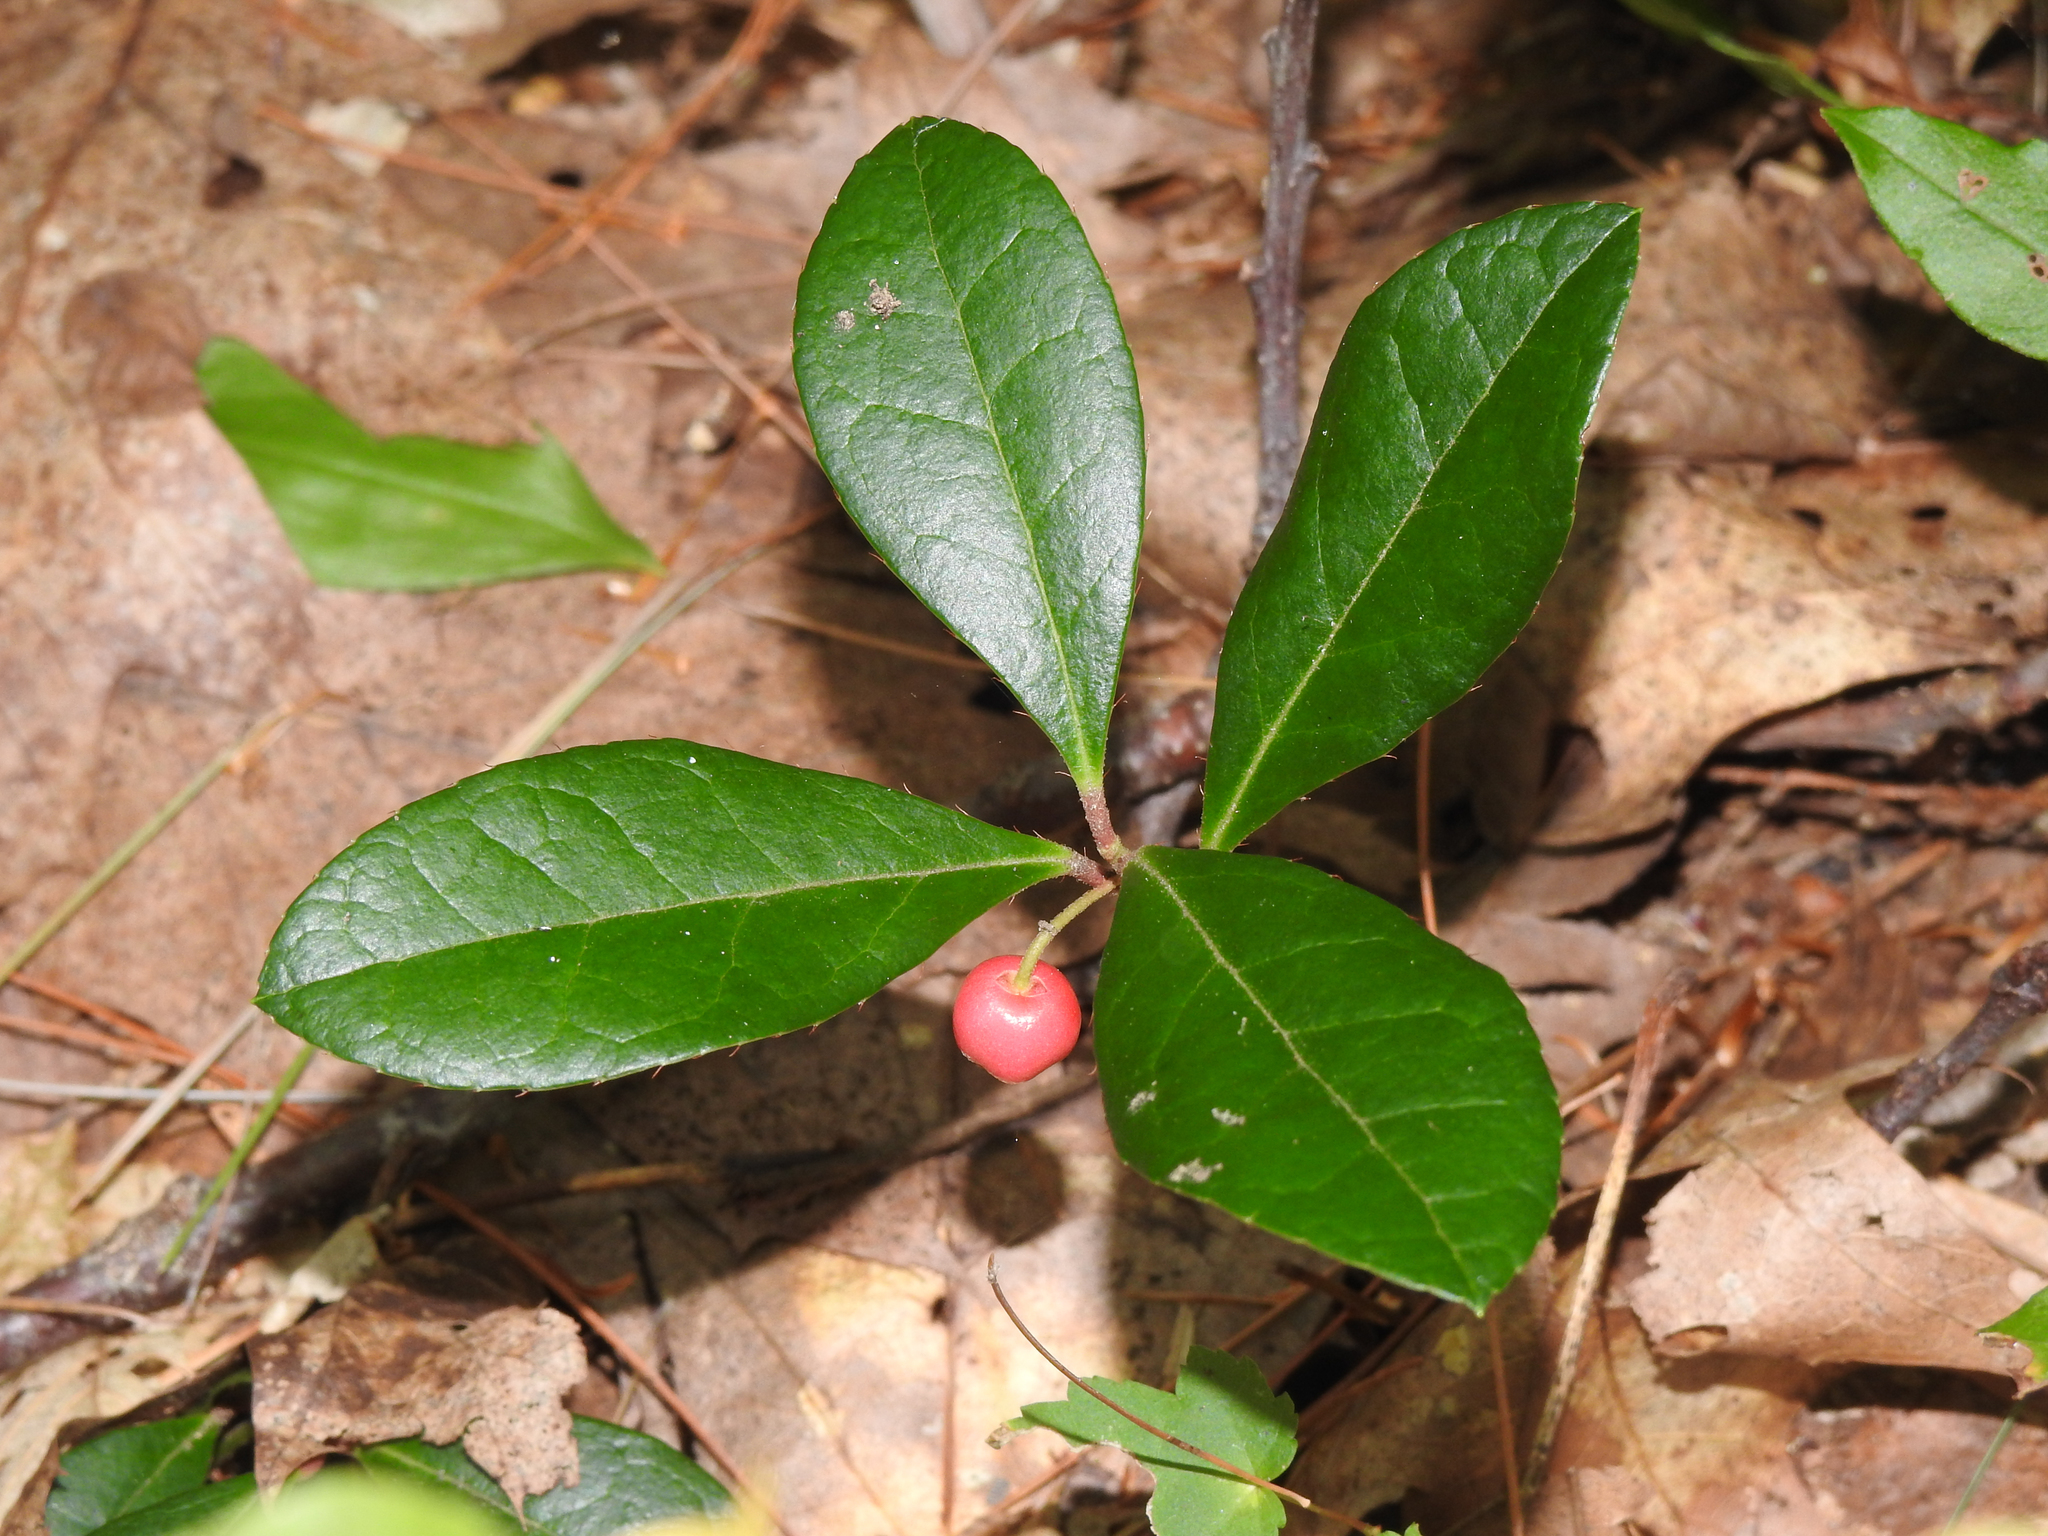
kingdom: Plantae
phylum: Tracheophyta
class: Magnoliopsida
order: Ericales
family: Ericaceae
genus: Gaultheria
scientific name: Gaultheria procumbens
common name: Checkerberry
